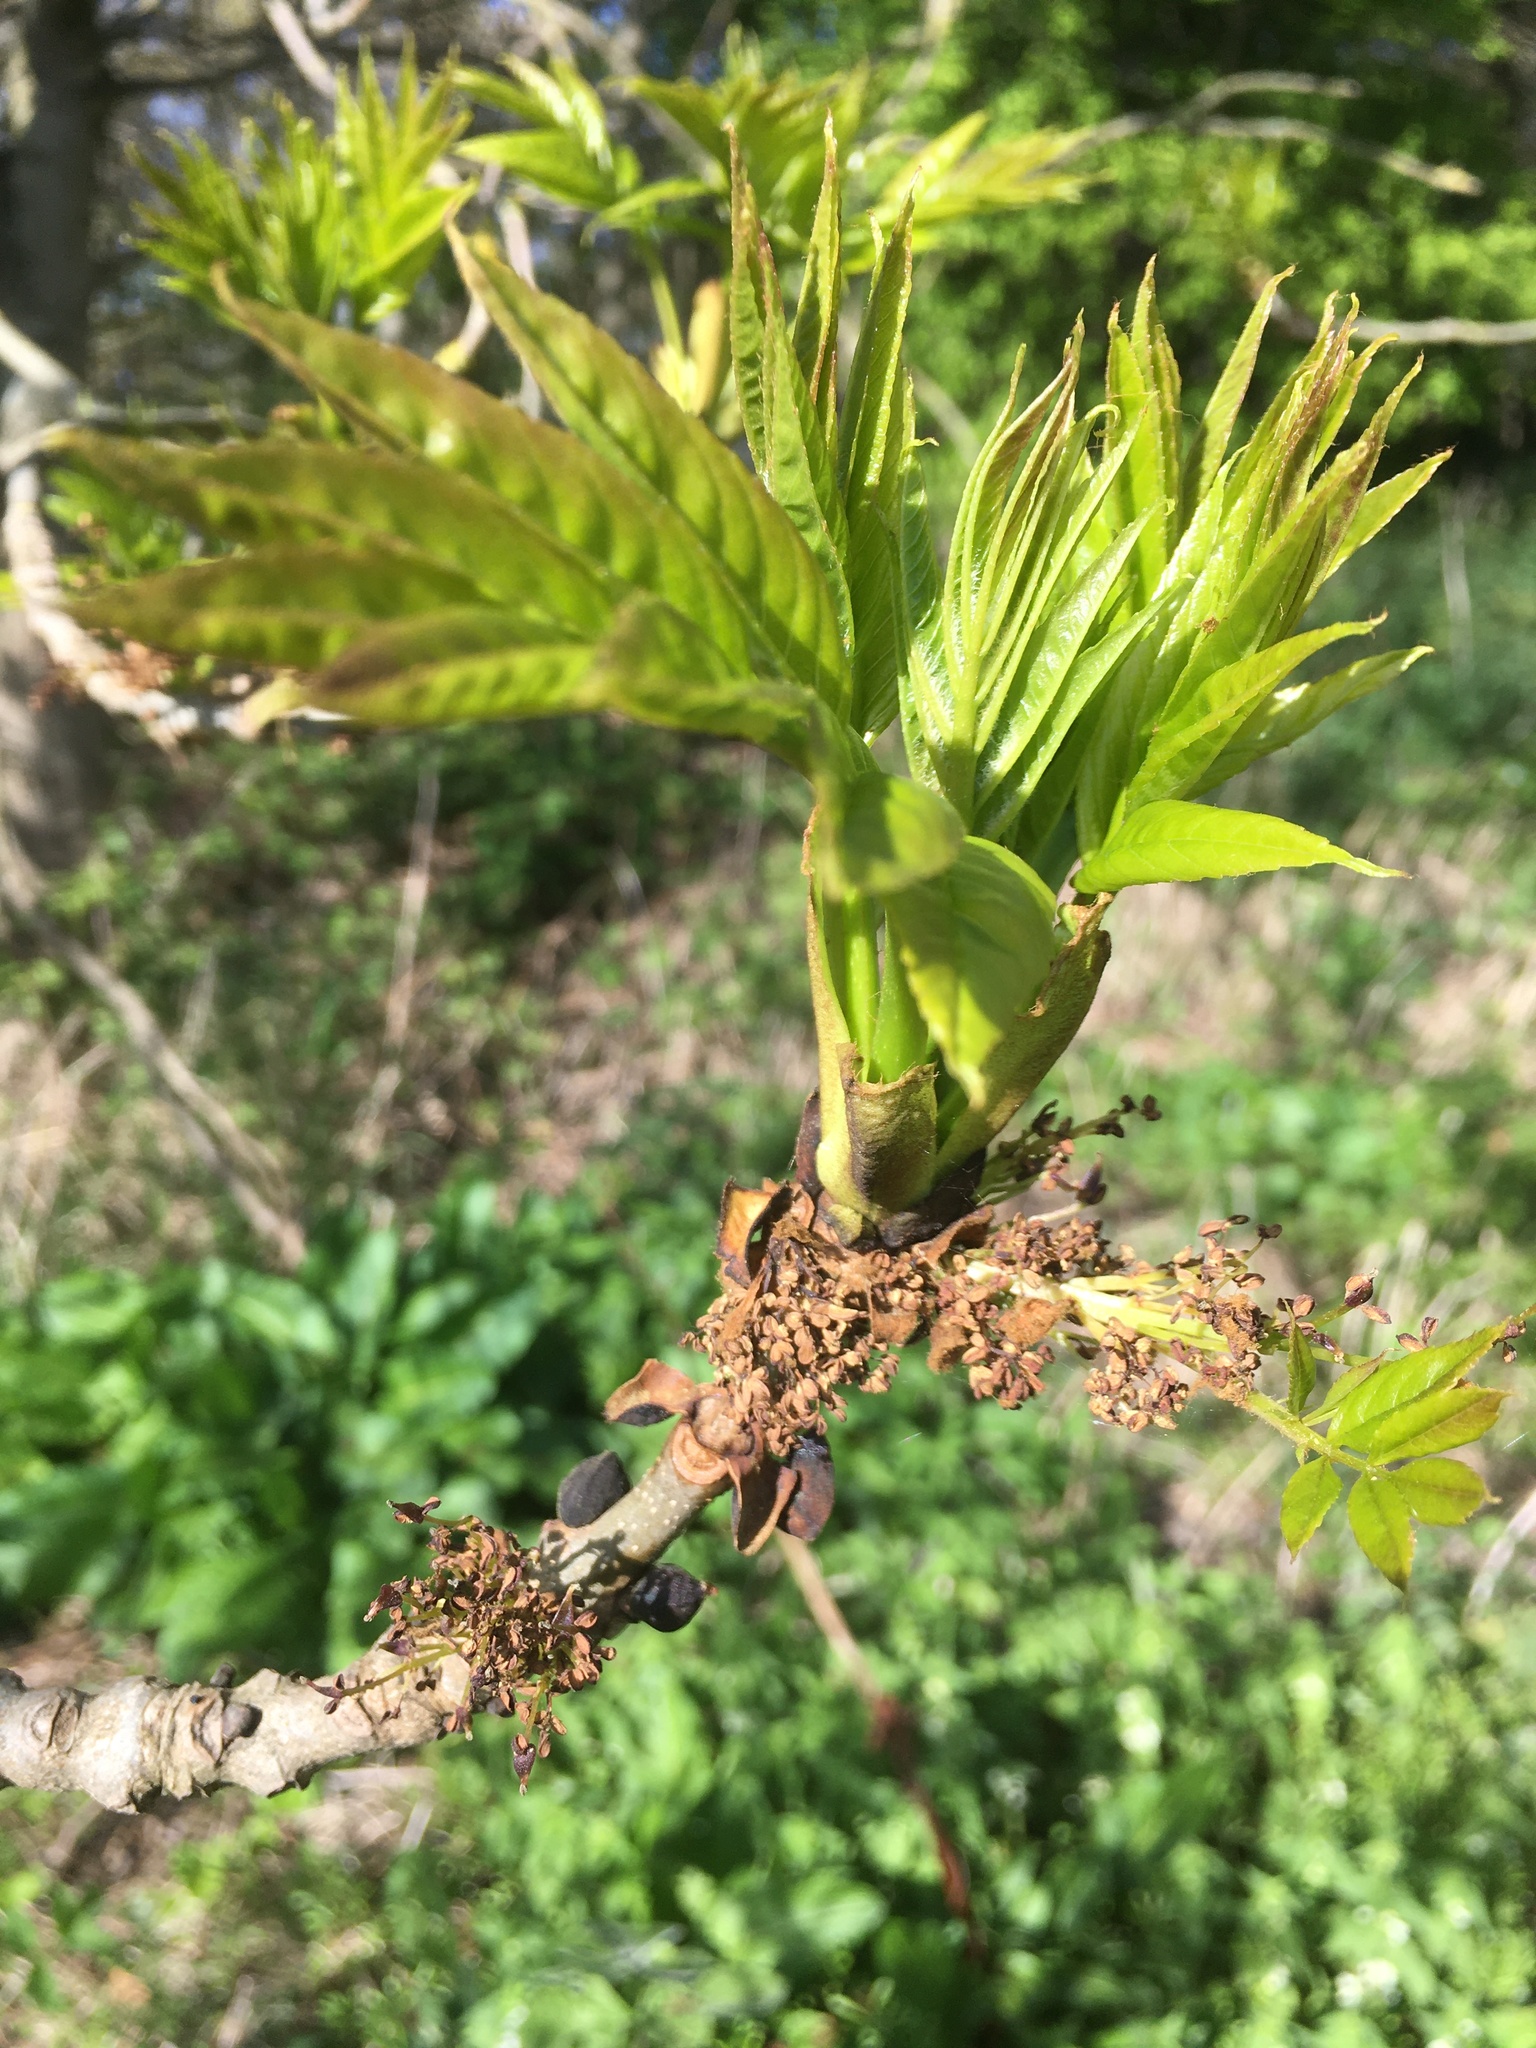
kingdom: Plantae
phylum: Tracheophyta
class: Magnoliopsida
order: Lamiales
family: Oleaceae
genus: Fraxinus
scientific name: Fraxinus excelsior
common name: European ash
